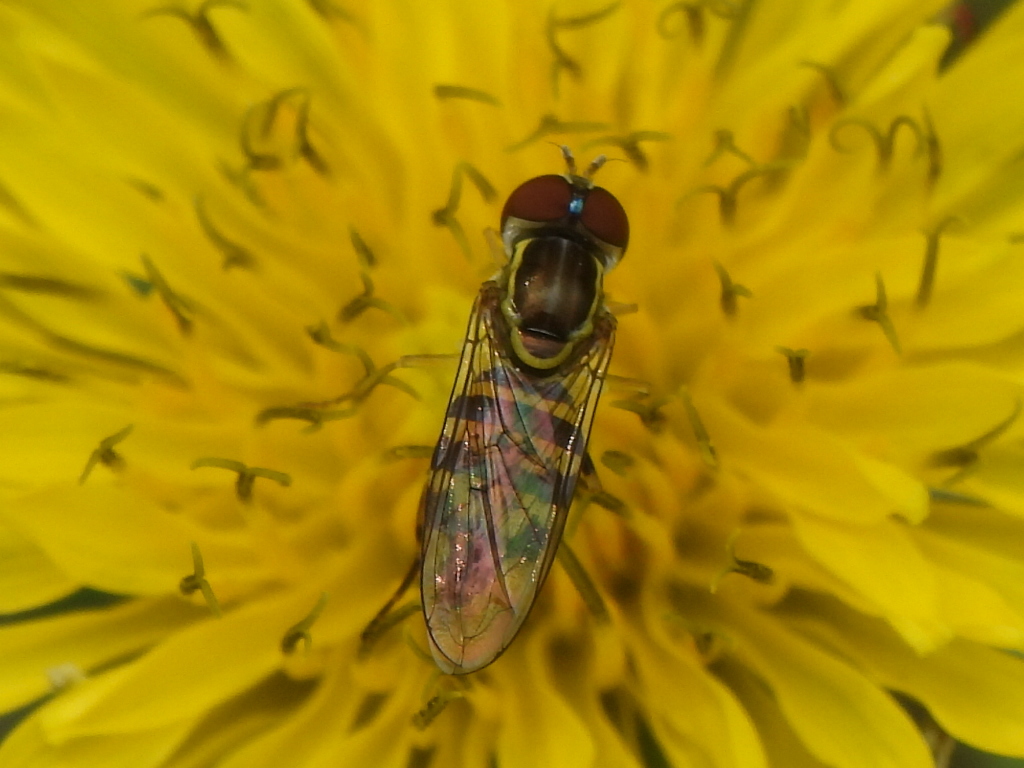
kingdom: Animalia
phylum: Arthropoda
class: Insecta
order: Diptera
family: Syrphidae
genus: Toxomerus
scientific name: Toxomerus geminatus
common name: Eastern calligrapher
